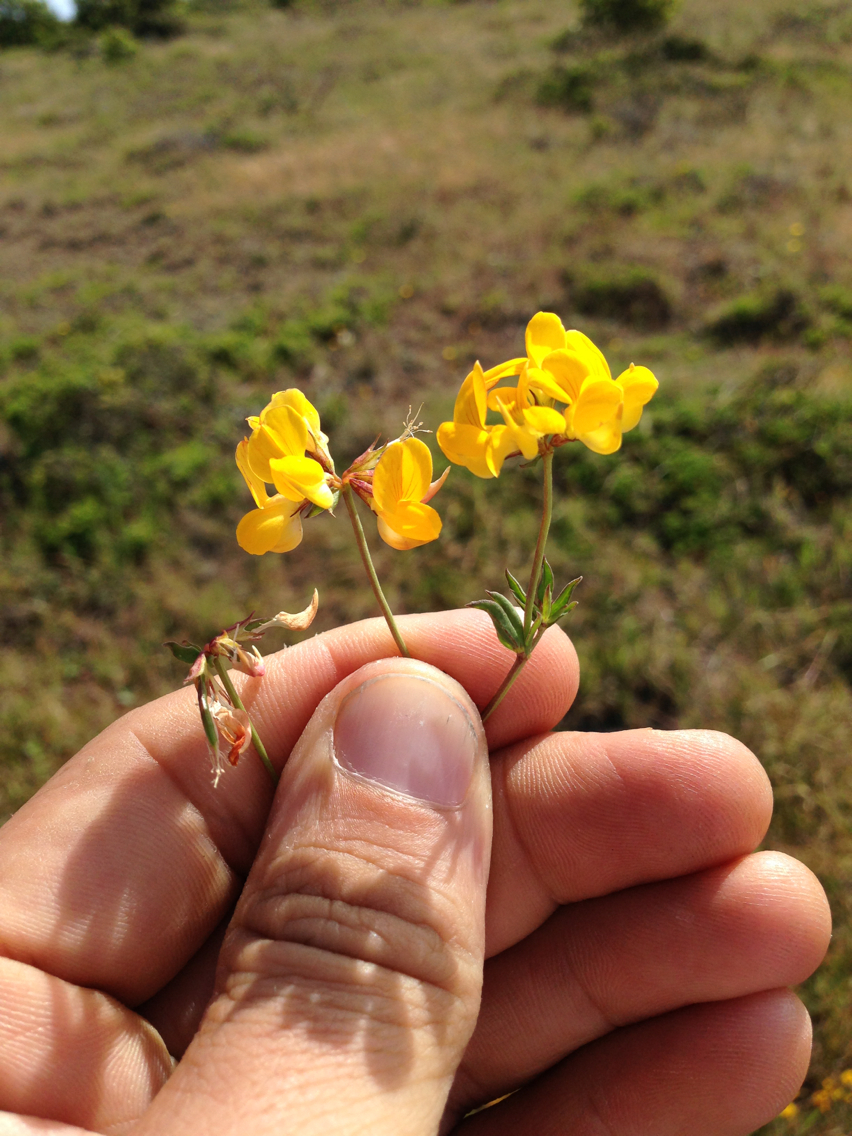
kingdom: Plantae
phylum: Tracheophyta
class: Magnoliopsida
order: Fabales
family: Fabaceae
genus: Lotus
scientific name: Lotus corniculatus
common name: Common bird's-foot-trefoil
